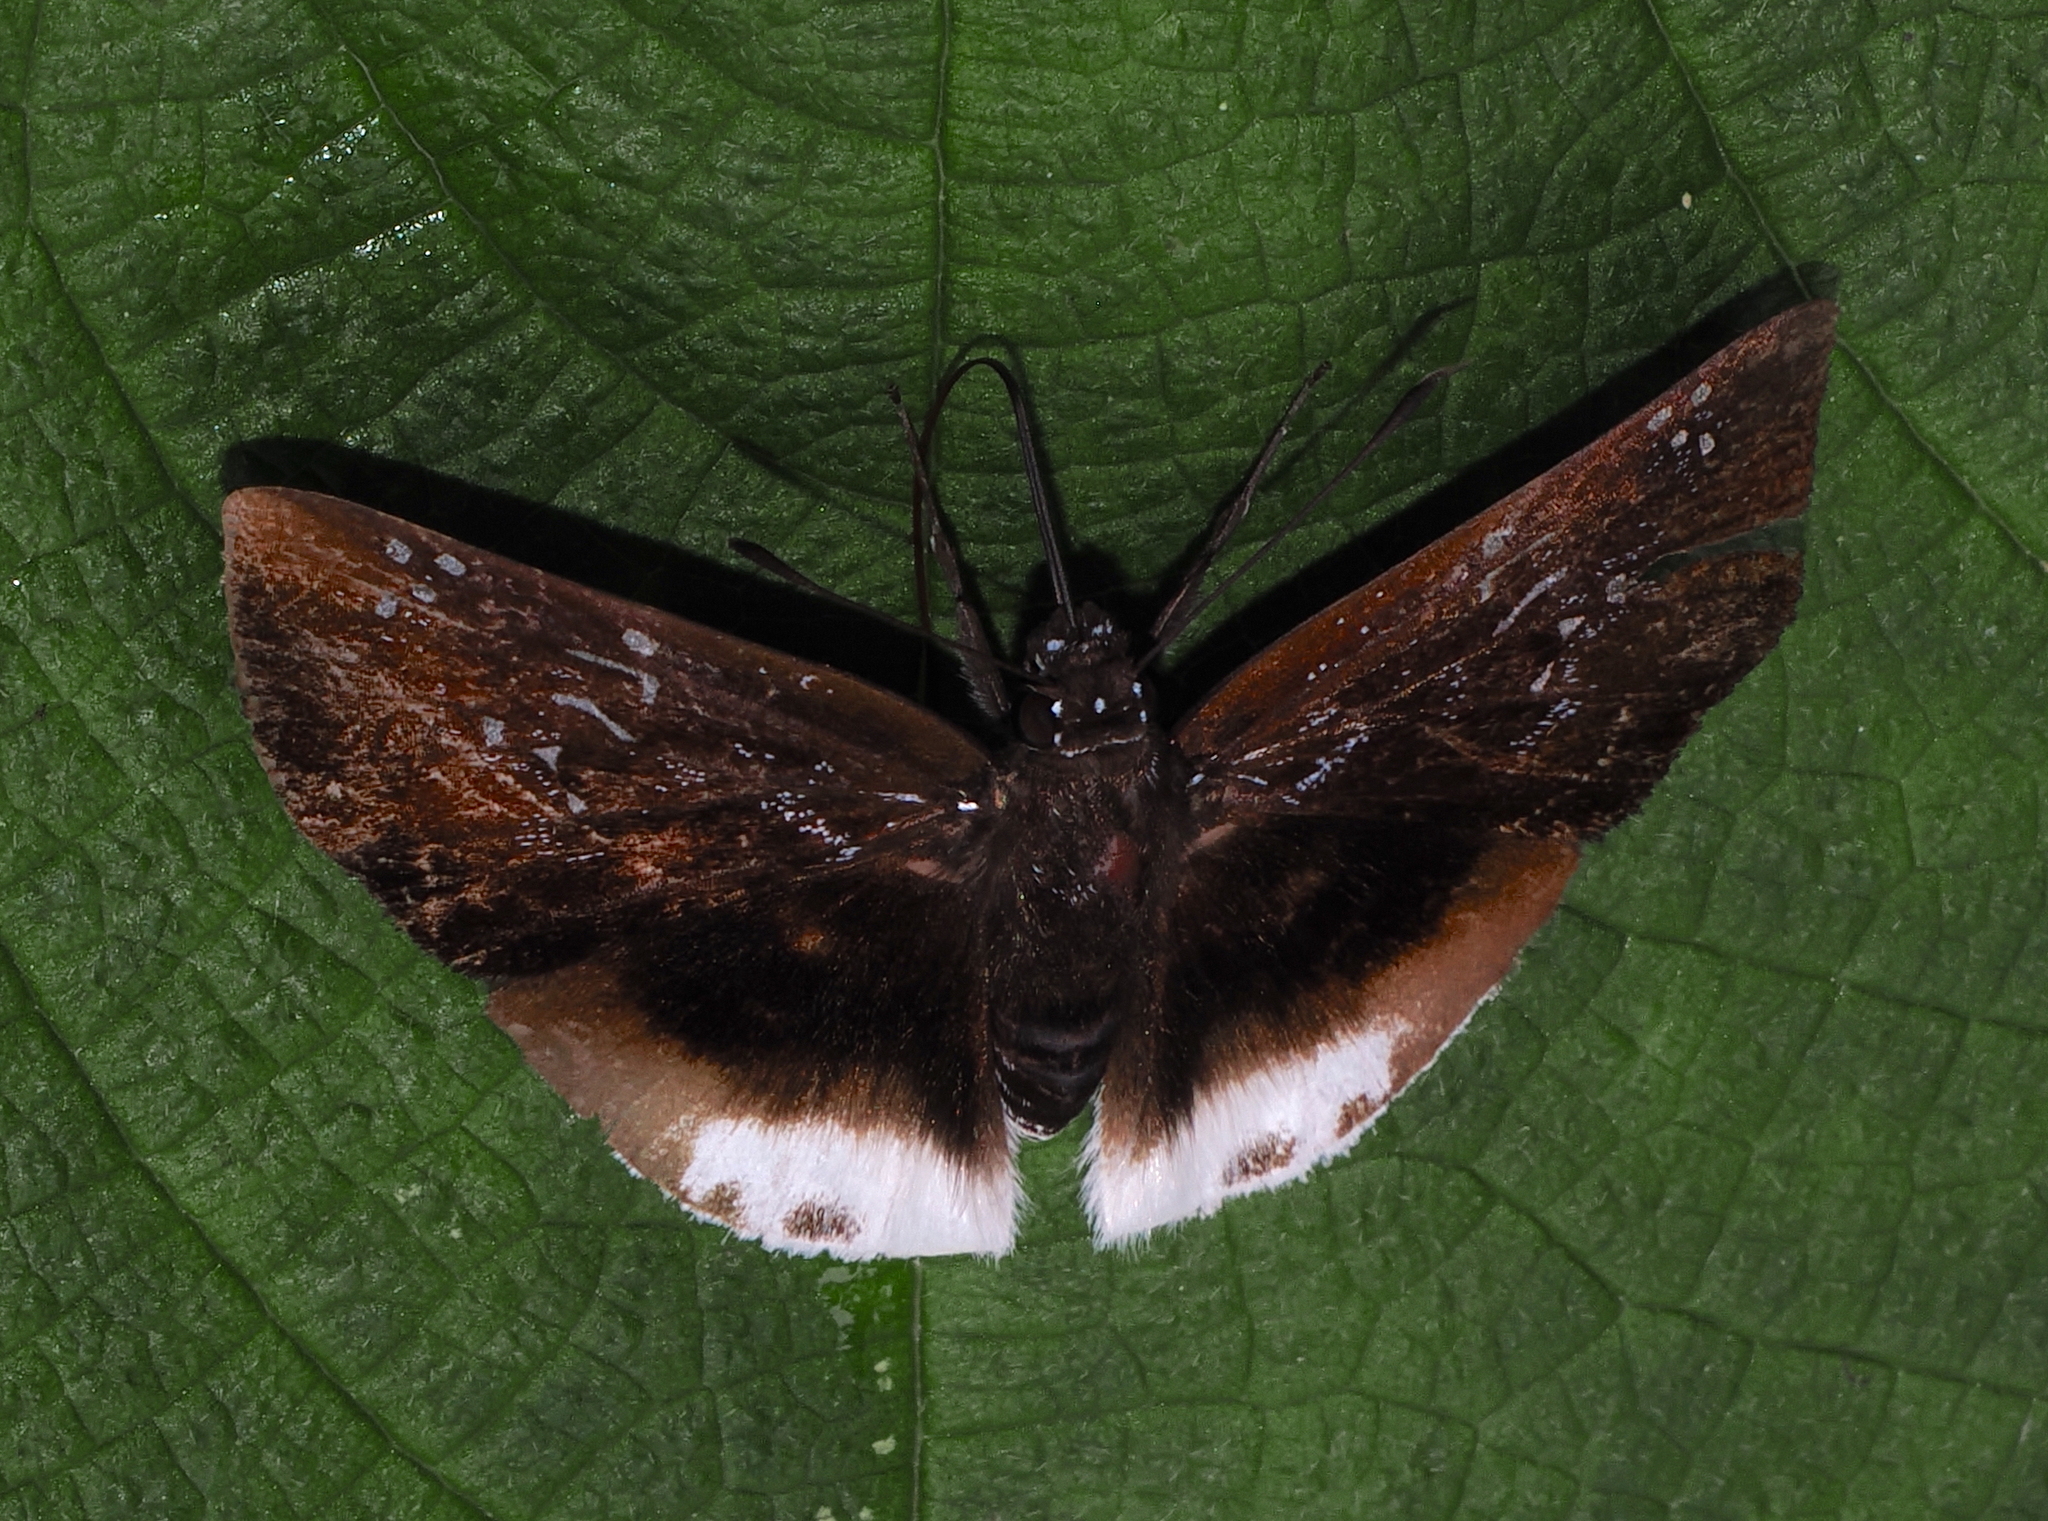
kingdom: Animalia
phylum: Arthropoda
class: Insecta
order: Lepidoptera
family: Hesperiidae
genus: Spioniades
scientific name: Spioniades abbreviata
